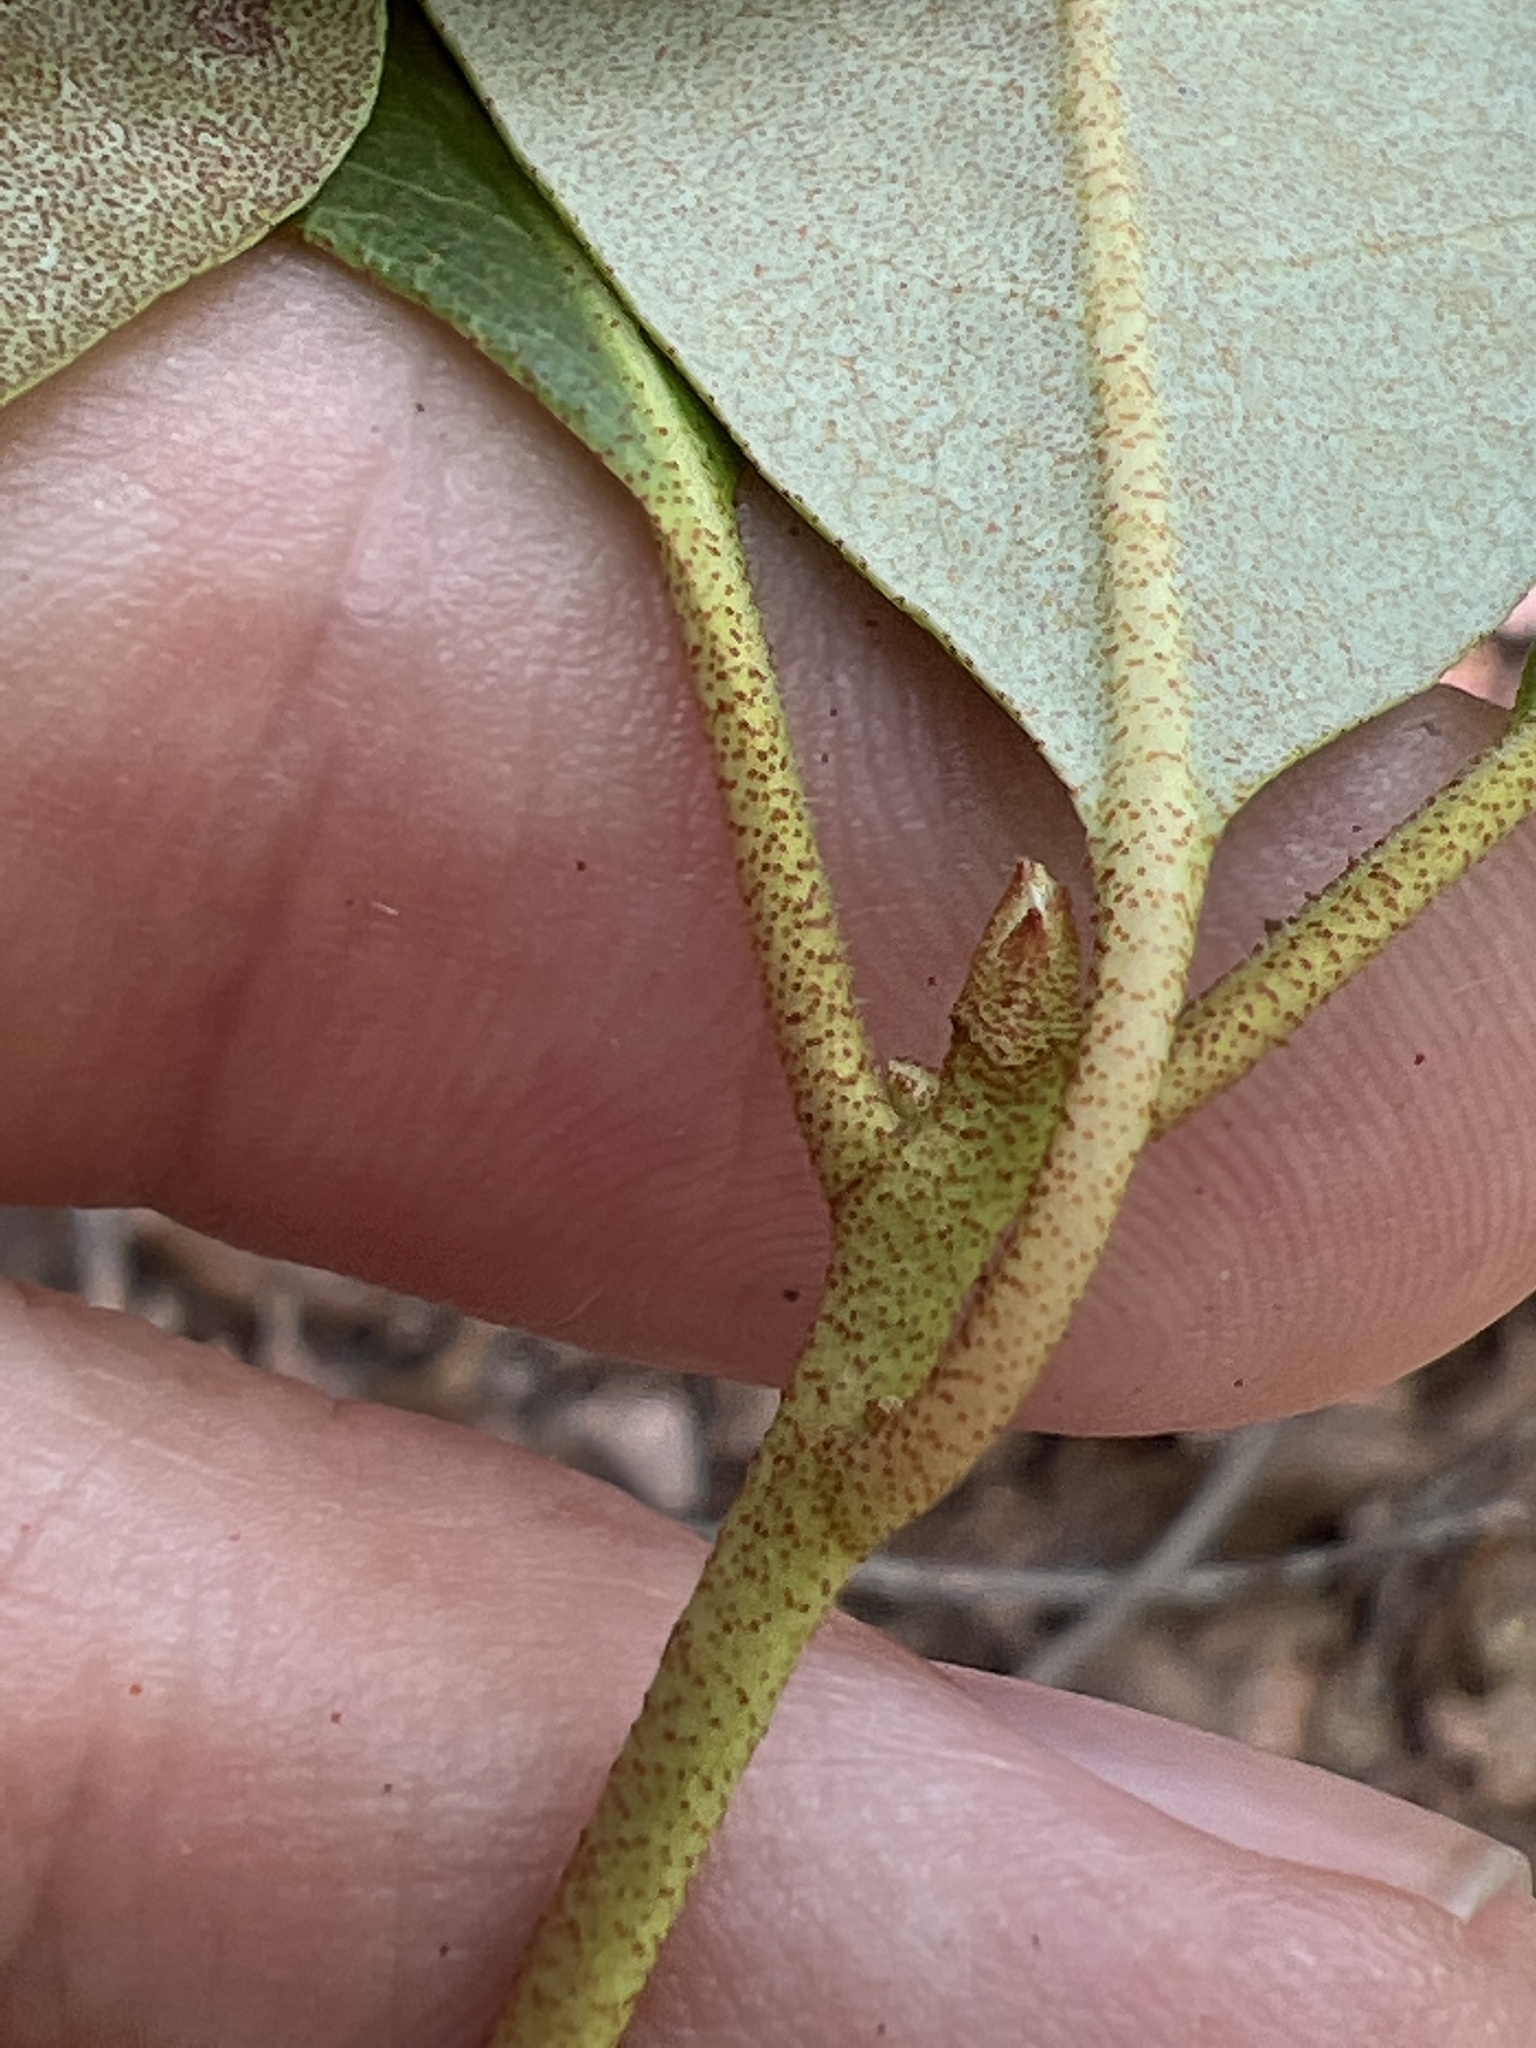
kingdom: Plantae
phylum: Tracheophyta
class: Magnoliopsida
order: Ericales
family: Ericaceae
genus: Rhododendron
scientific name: Rhododendron minus
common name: Piedmont rhododendron
